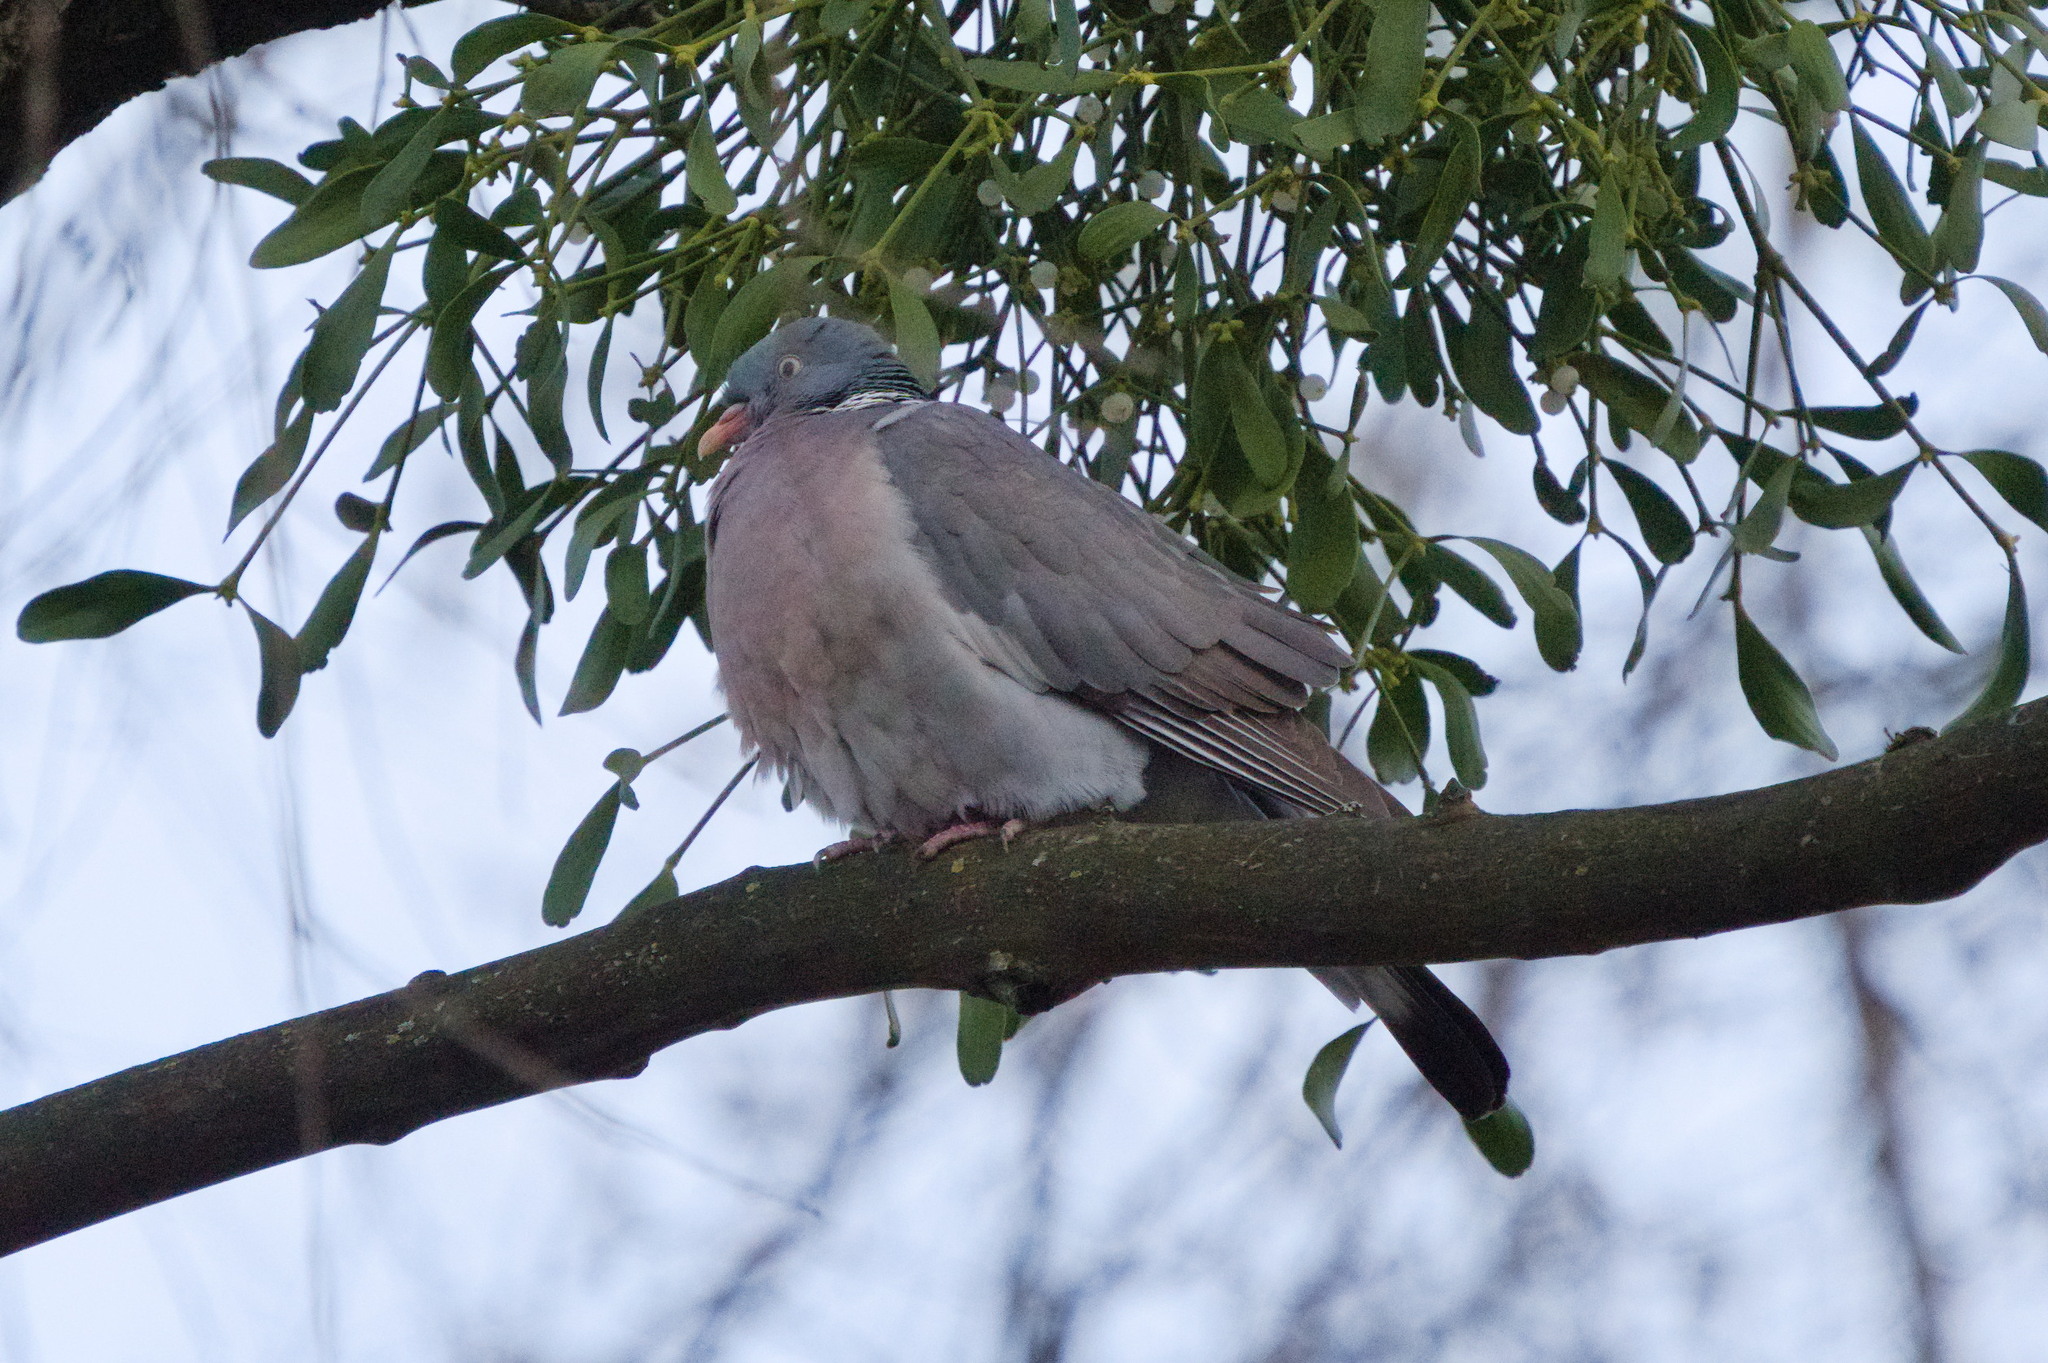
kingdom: Animalia
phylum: Chordata
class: Aves
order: Columbiformes
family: Columbidae
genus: Columba
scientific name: Columba palumbus
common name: Common wood pigeon
